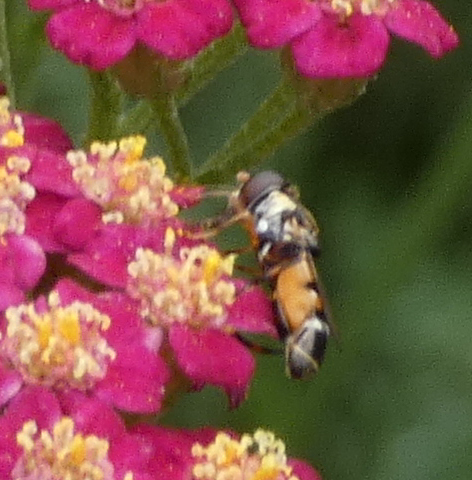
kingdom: Animalia
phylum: Arthropoda
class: Insecta
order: Diptera
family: Syrphidae
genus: Syritta
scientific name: Syritta pipiens
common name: Hover fly
